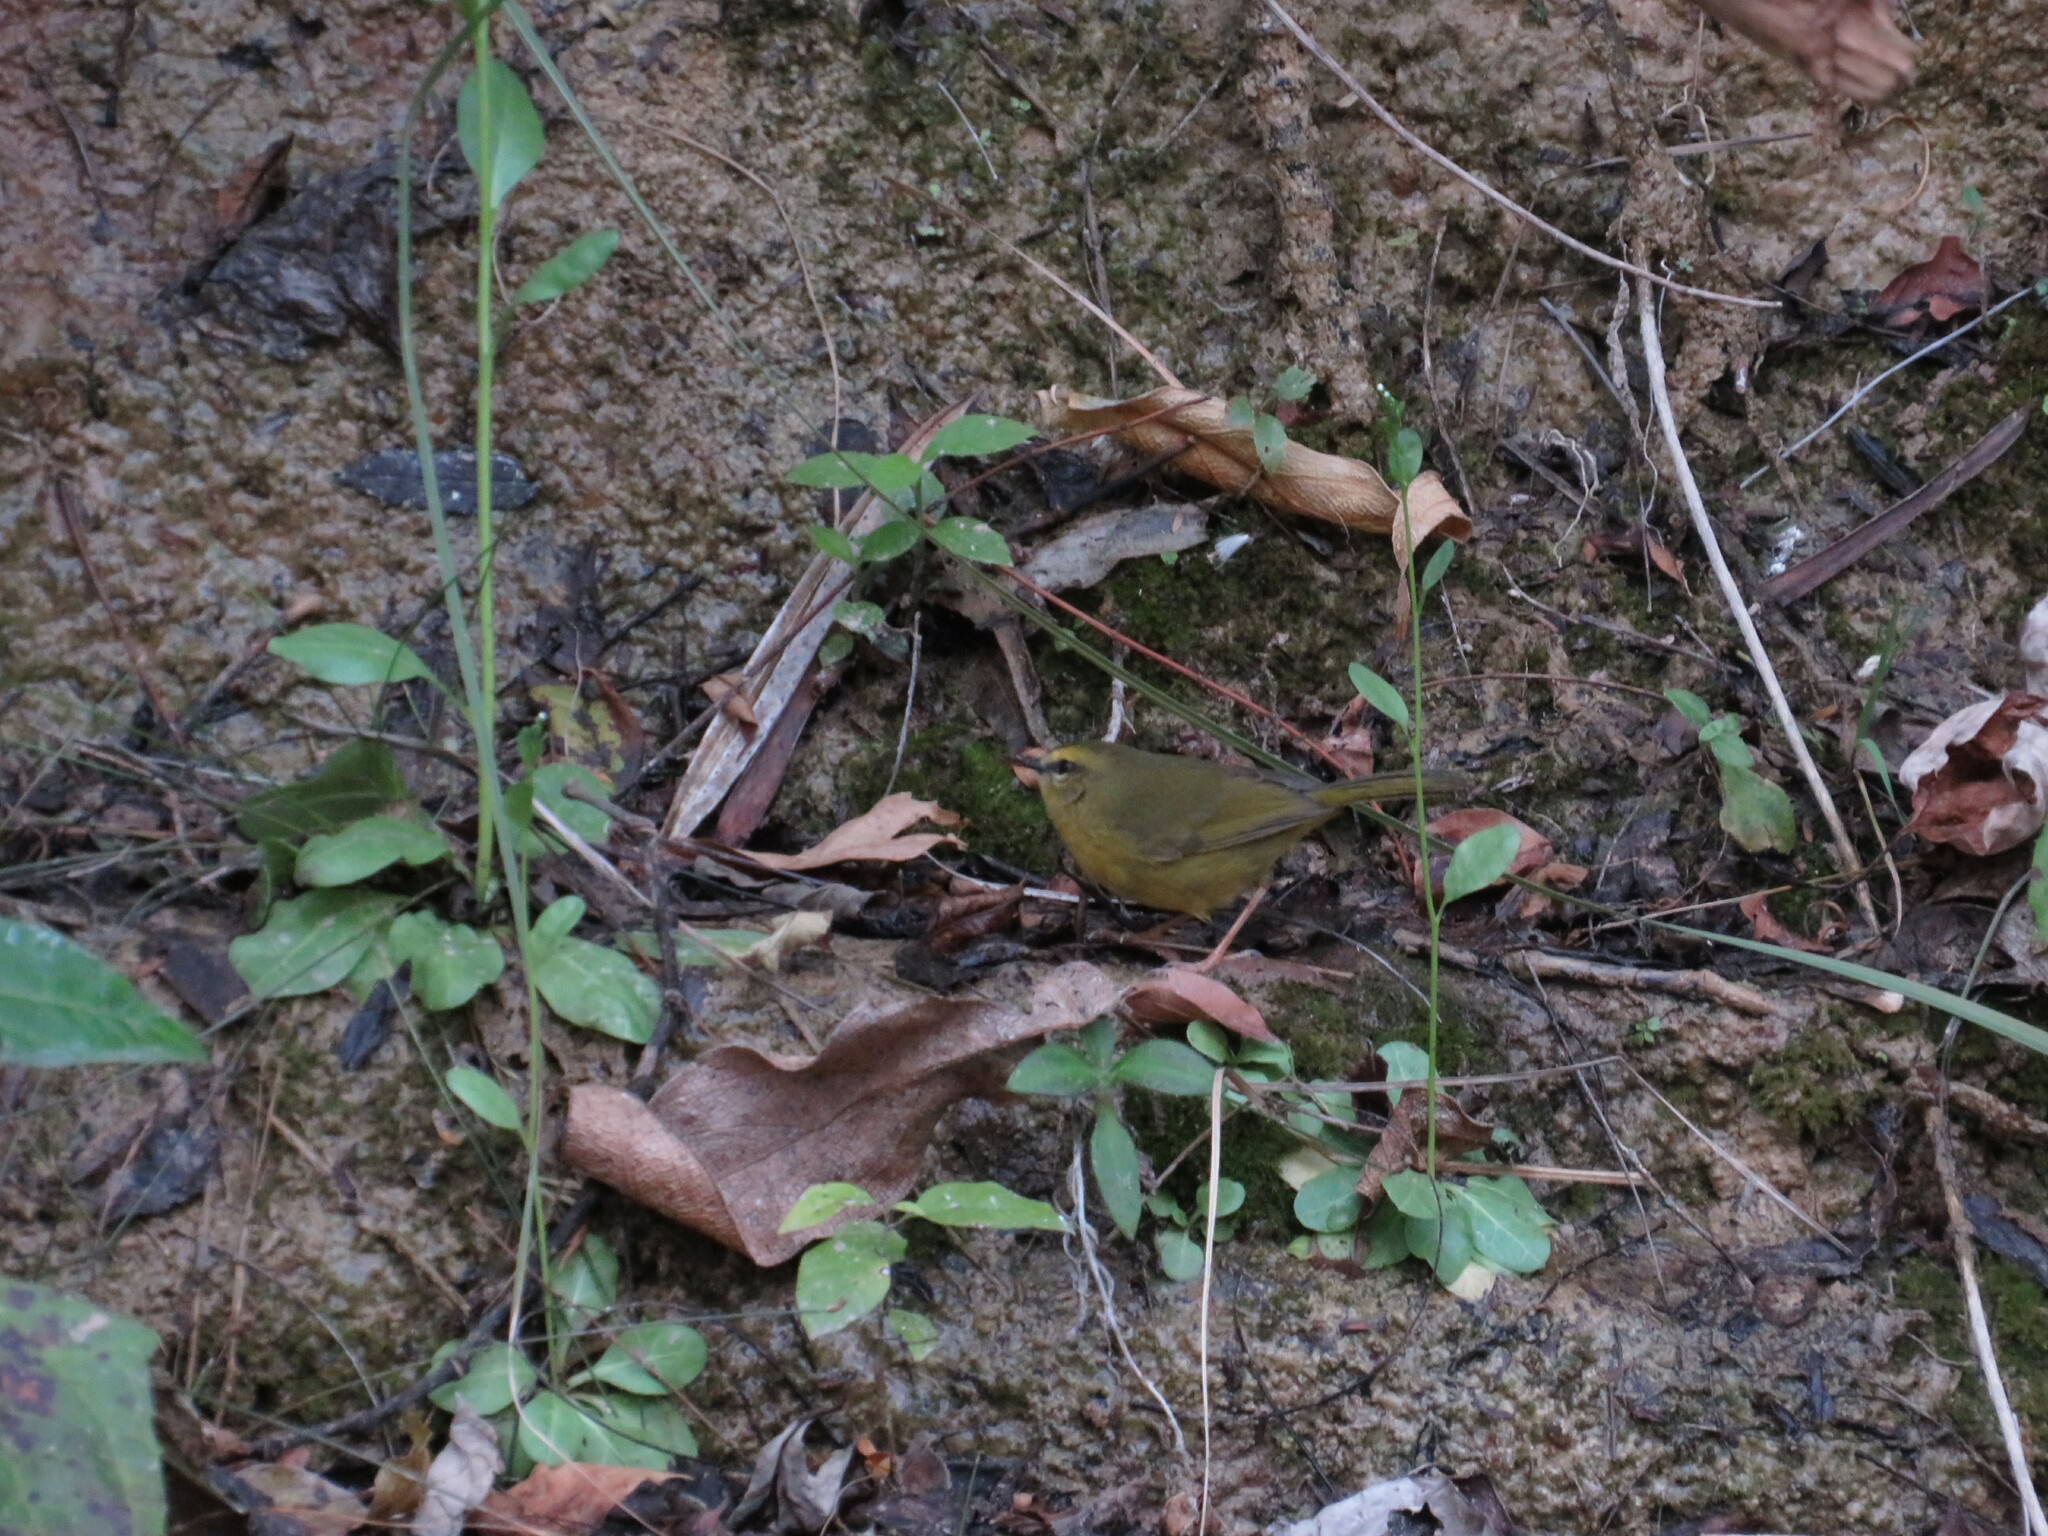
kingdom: Animalia
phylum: Chordata
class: Aves
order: Passeriformes
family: Parulidae
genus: Myiothlypis
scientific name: Myiothlypis bivittata
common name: Two-banded warbler
